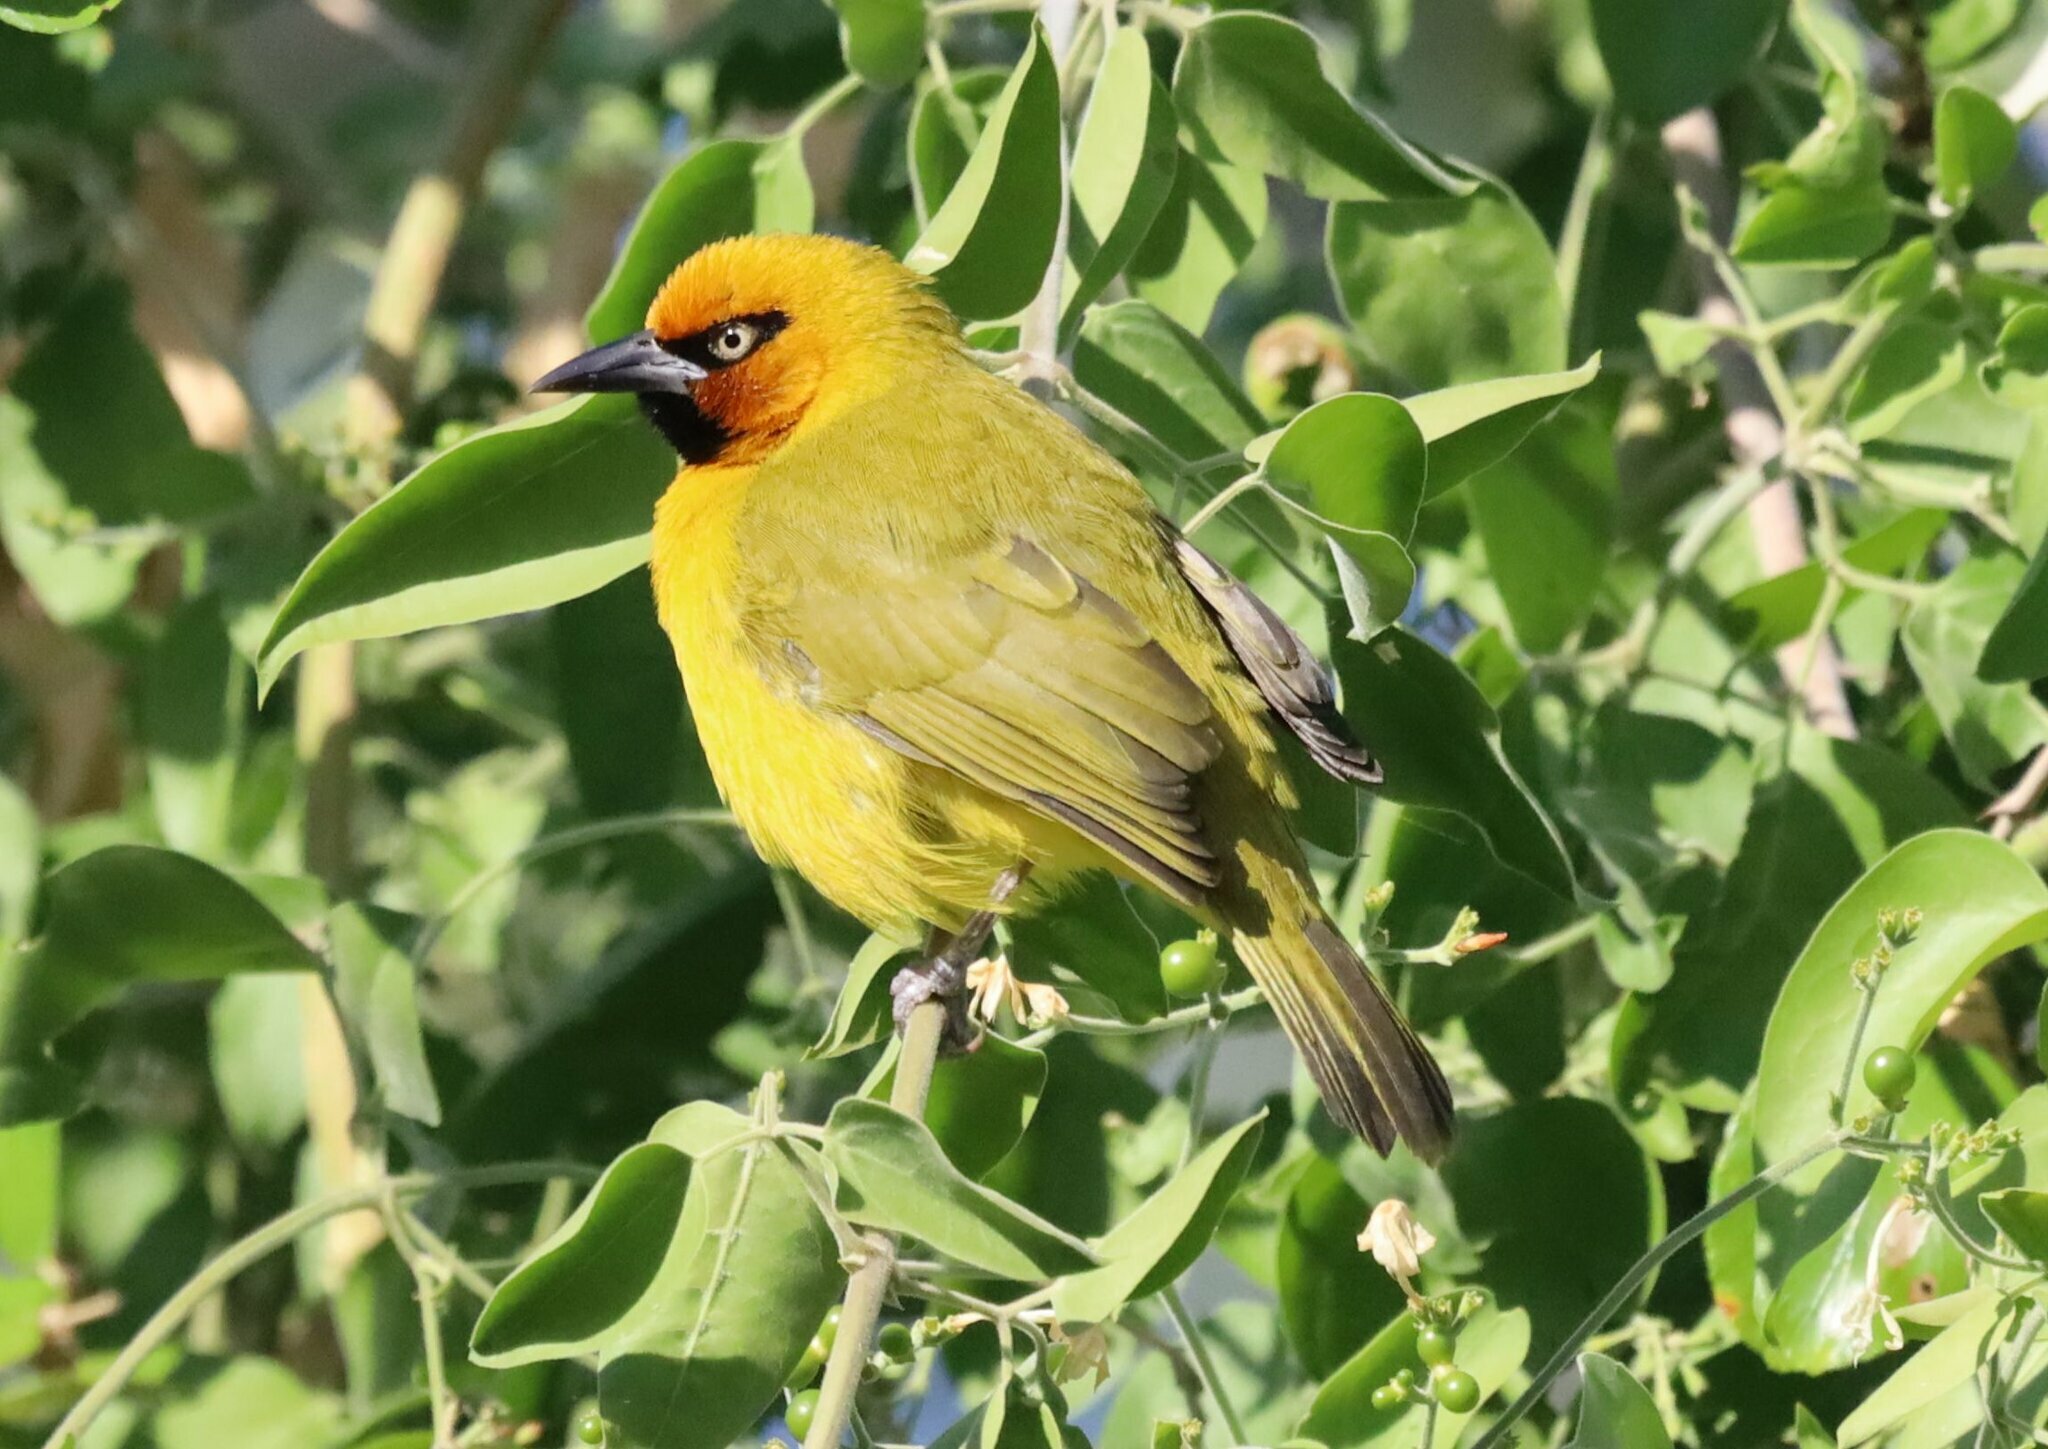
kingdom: Animalia
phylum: Chordata
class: Aves
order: Passeriformes
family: Ploceidae
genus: Ploceus
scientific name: Ploceus ocularis
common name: Spectacled weaver
